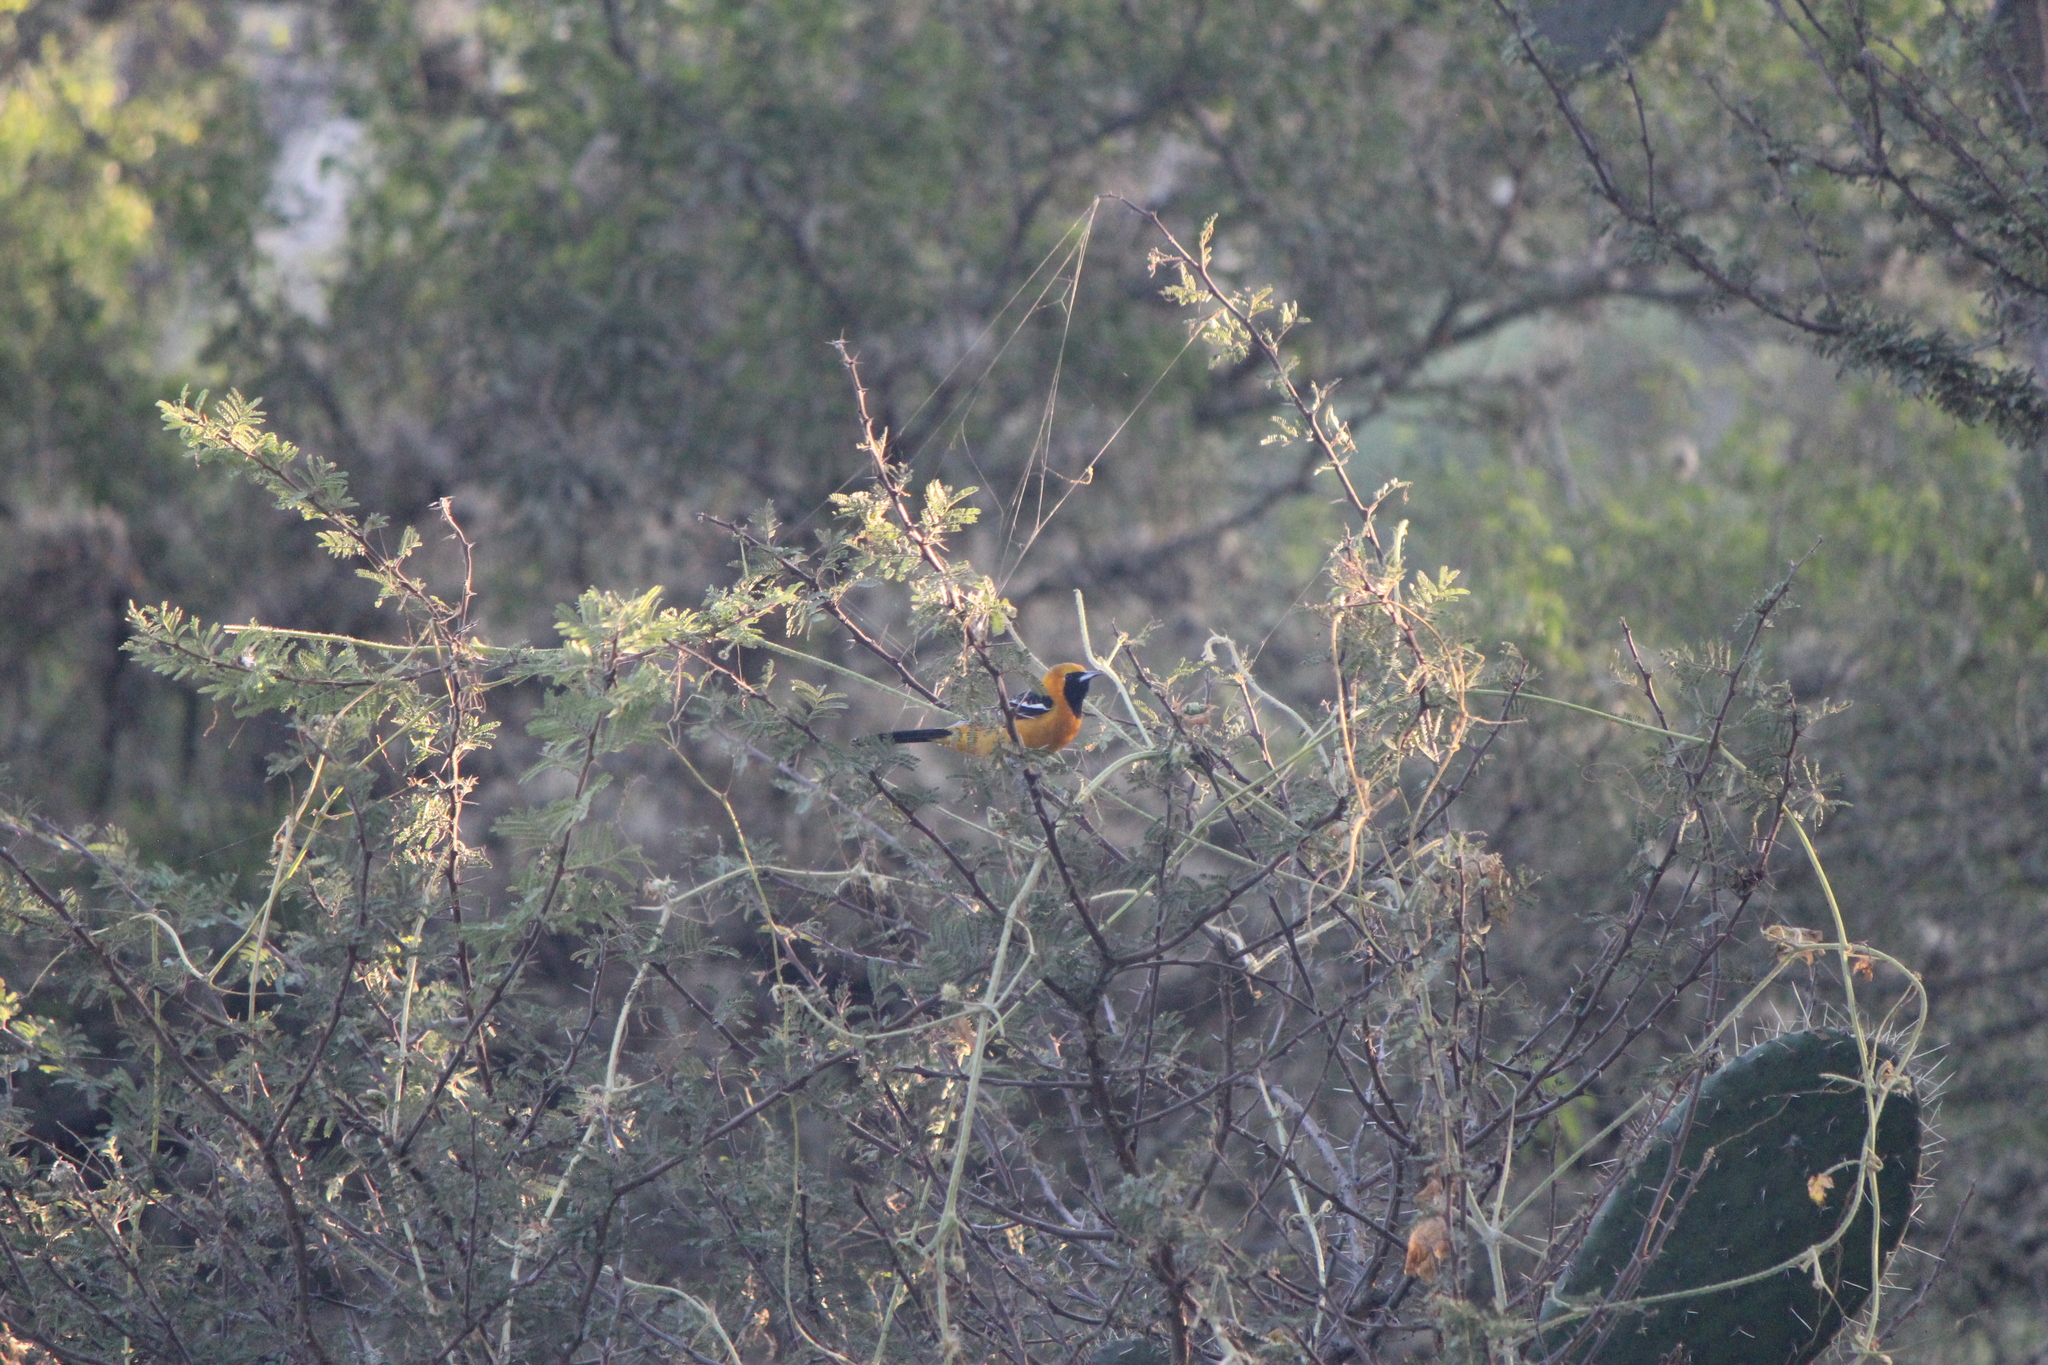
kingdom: Animalia
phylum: Chordata
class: Aves
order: Passeriformes
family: Icteridae
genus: Icterus
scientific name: Icterus cucullatus
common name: Hooded oriole
